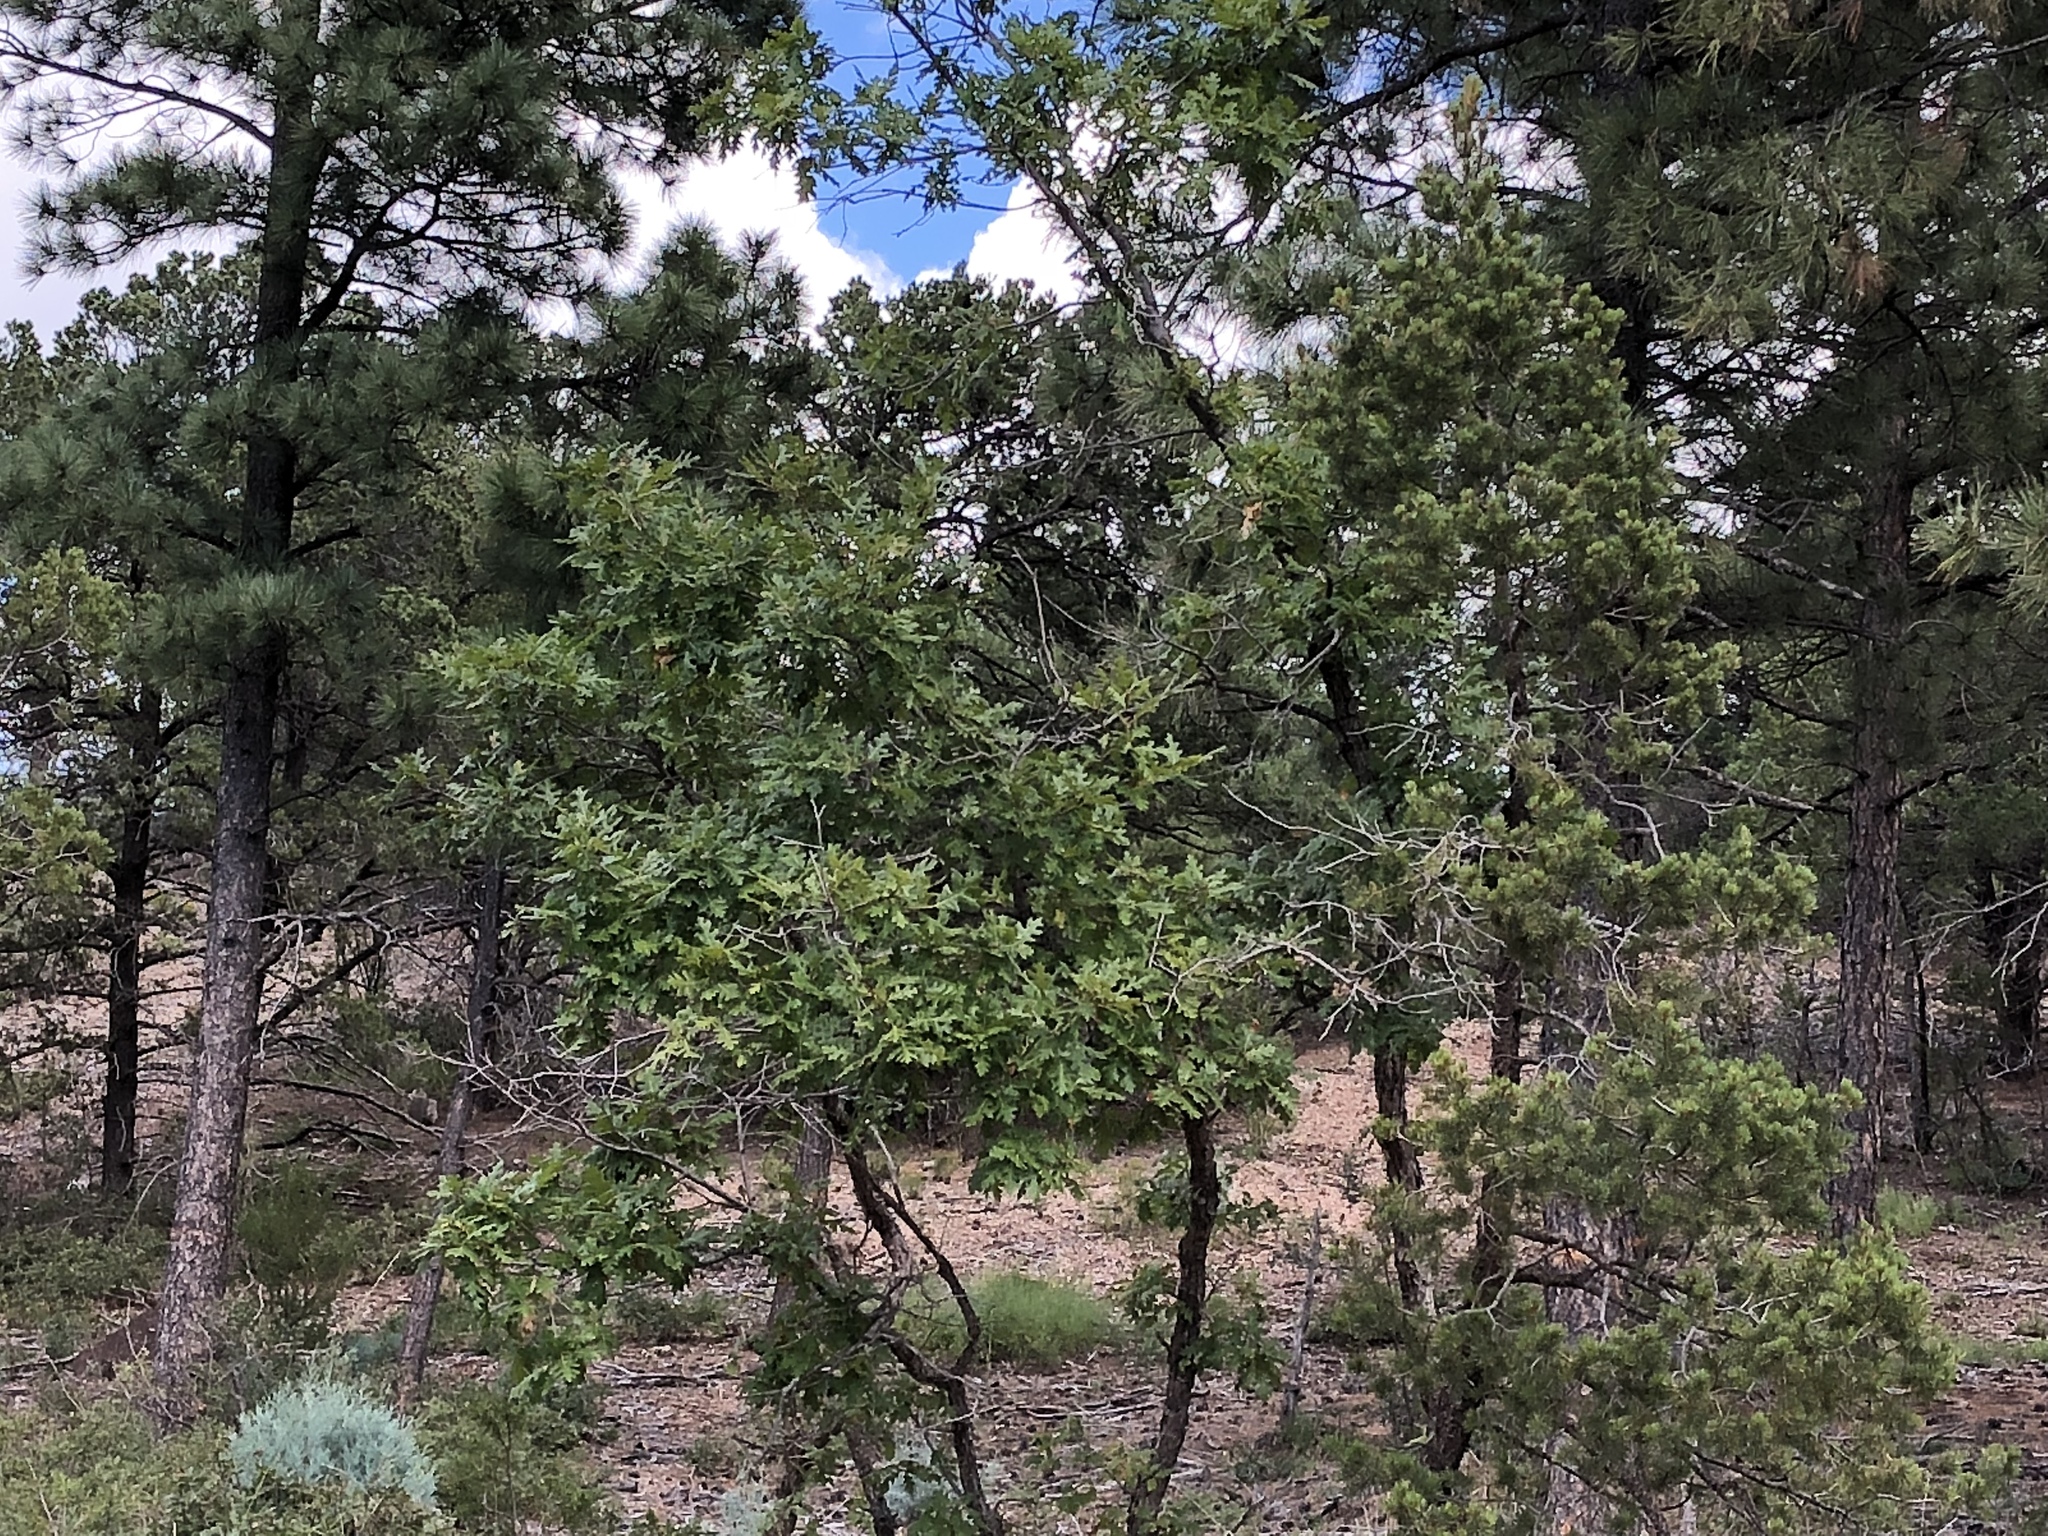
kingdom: Plantae
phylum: Tracheophyta
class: Magnoliopsida
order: Fagales
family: Fagaceae
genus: Quercus
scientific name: Quercus gambelii
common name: Gambel oak
